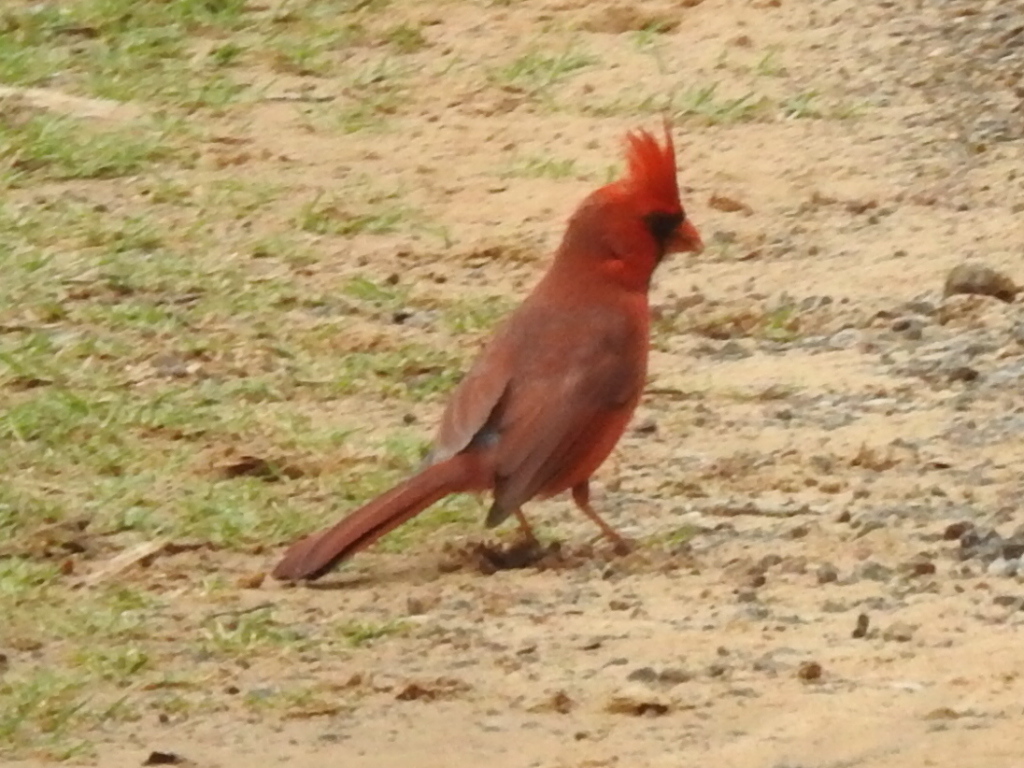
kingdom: Animalia
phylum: Chordata
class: Aves
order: Passeriformes
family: Cardinalidae
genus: Cardinalis
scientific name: Cardinalis cardinalis
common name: Northern cardinal
